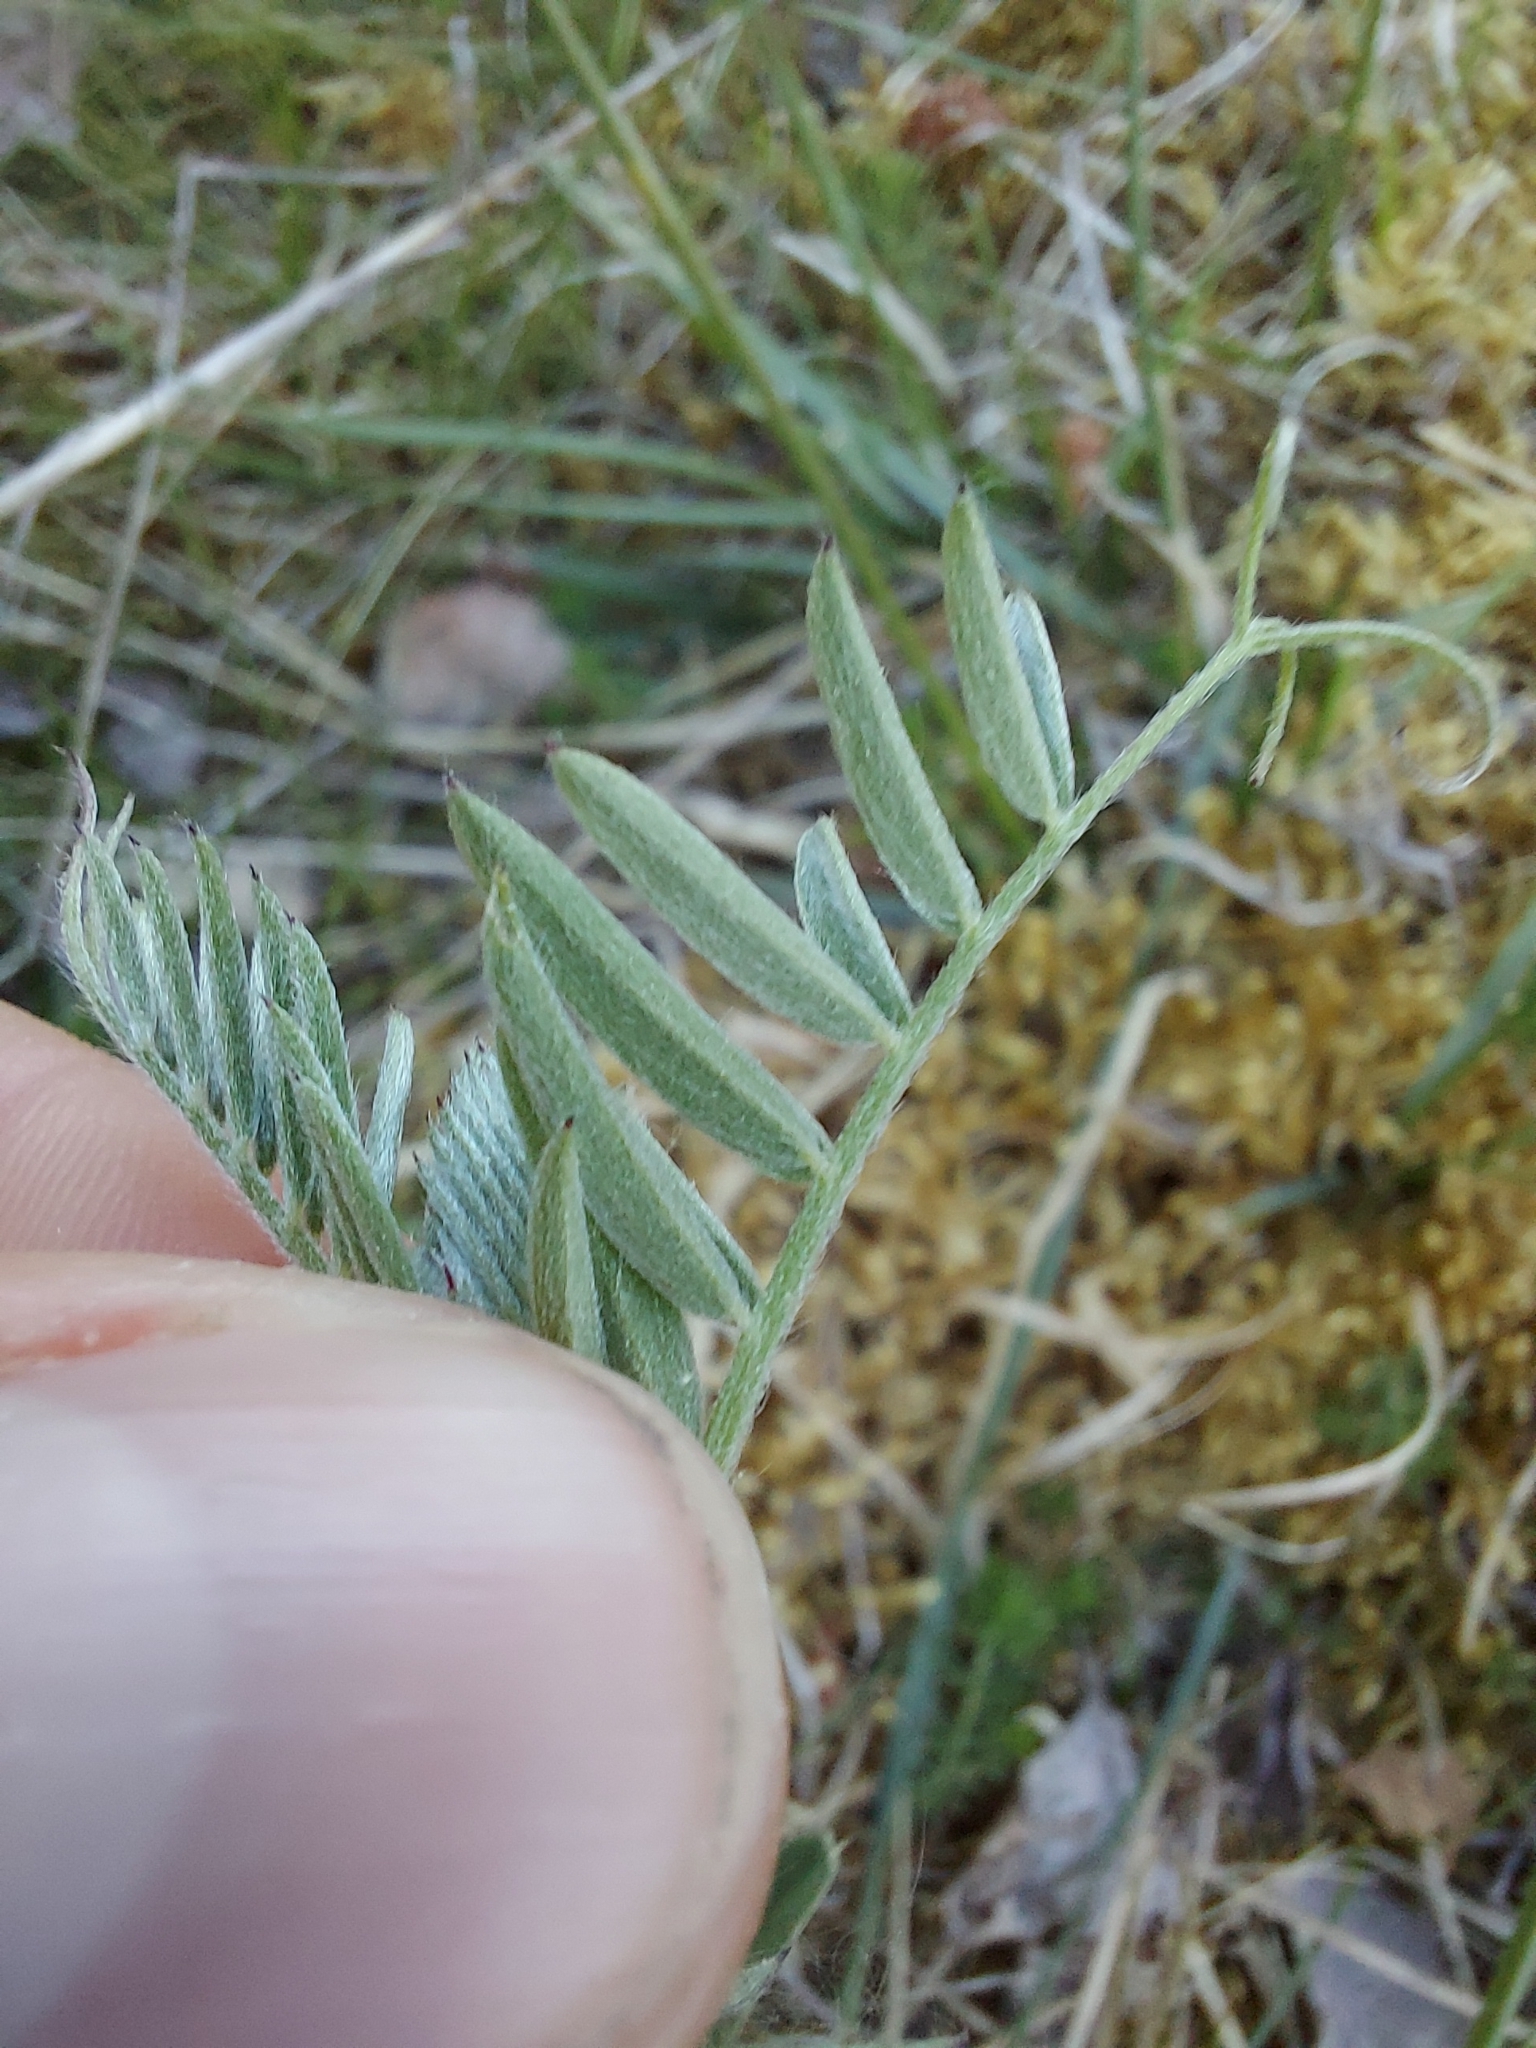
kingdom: Plantae
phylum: Tracheophyta
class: Magnoliopsida
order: Fabales
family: Fabaceae
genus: Vicia
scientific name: Vicia cracca
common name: Bird vetch
